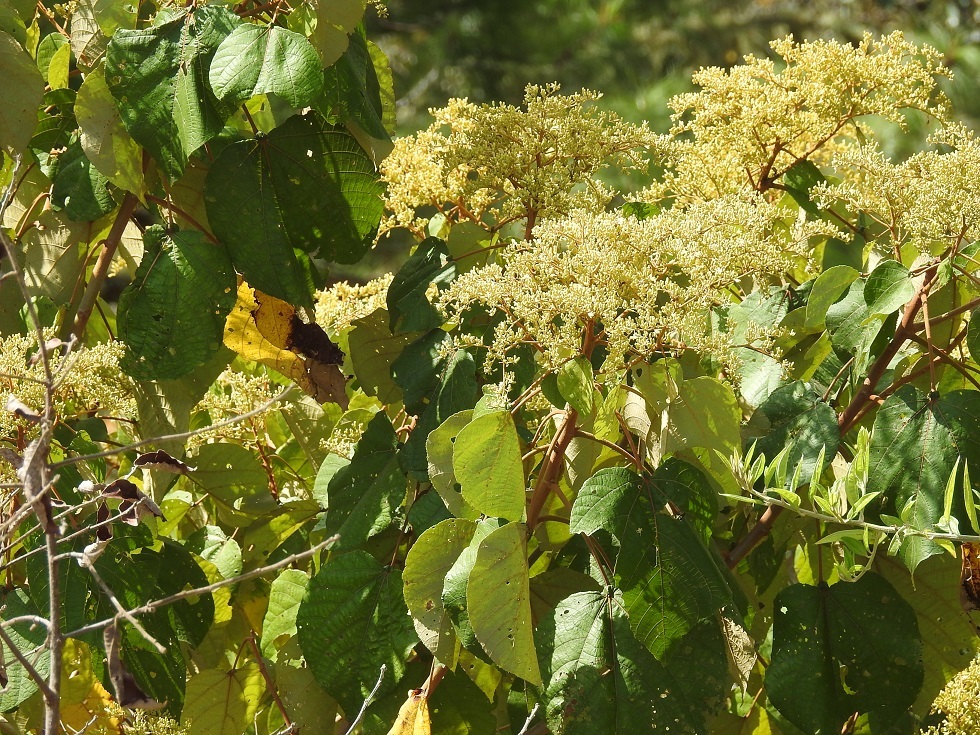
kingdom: Plantae
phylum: Tracheophyta
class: Magnoliopsida
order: Malvales
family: Malvaceae
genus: Heliocarpus
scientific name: Heliocarpus americanus
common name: White moho
